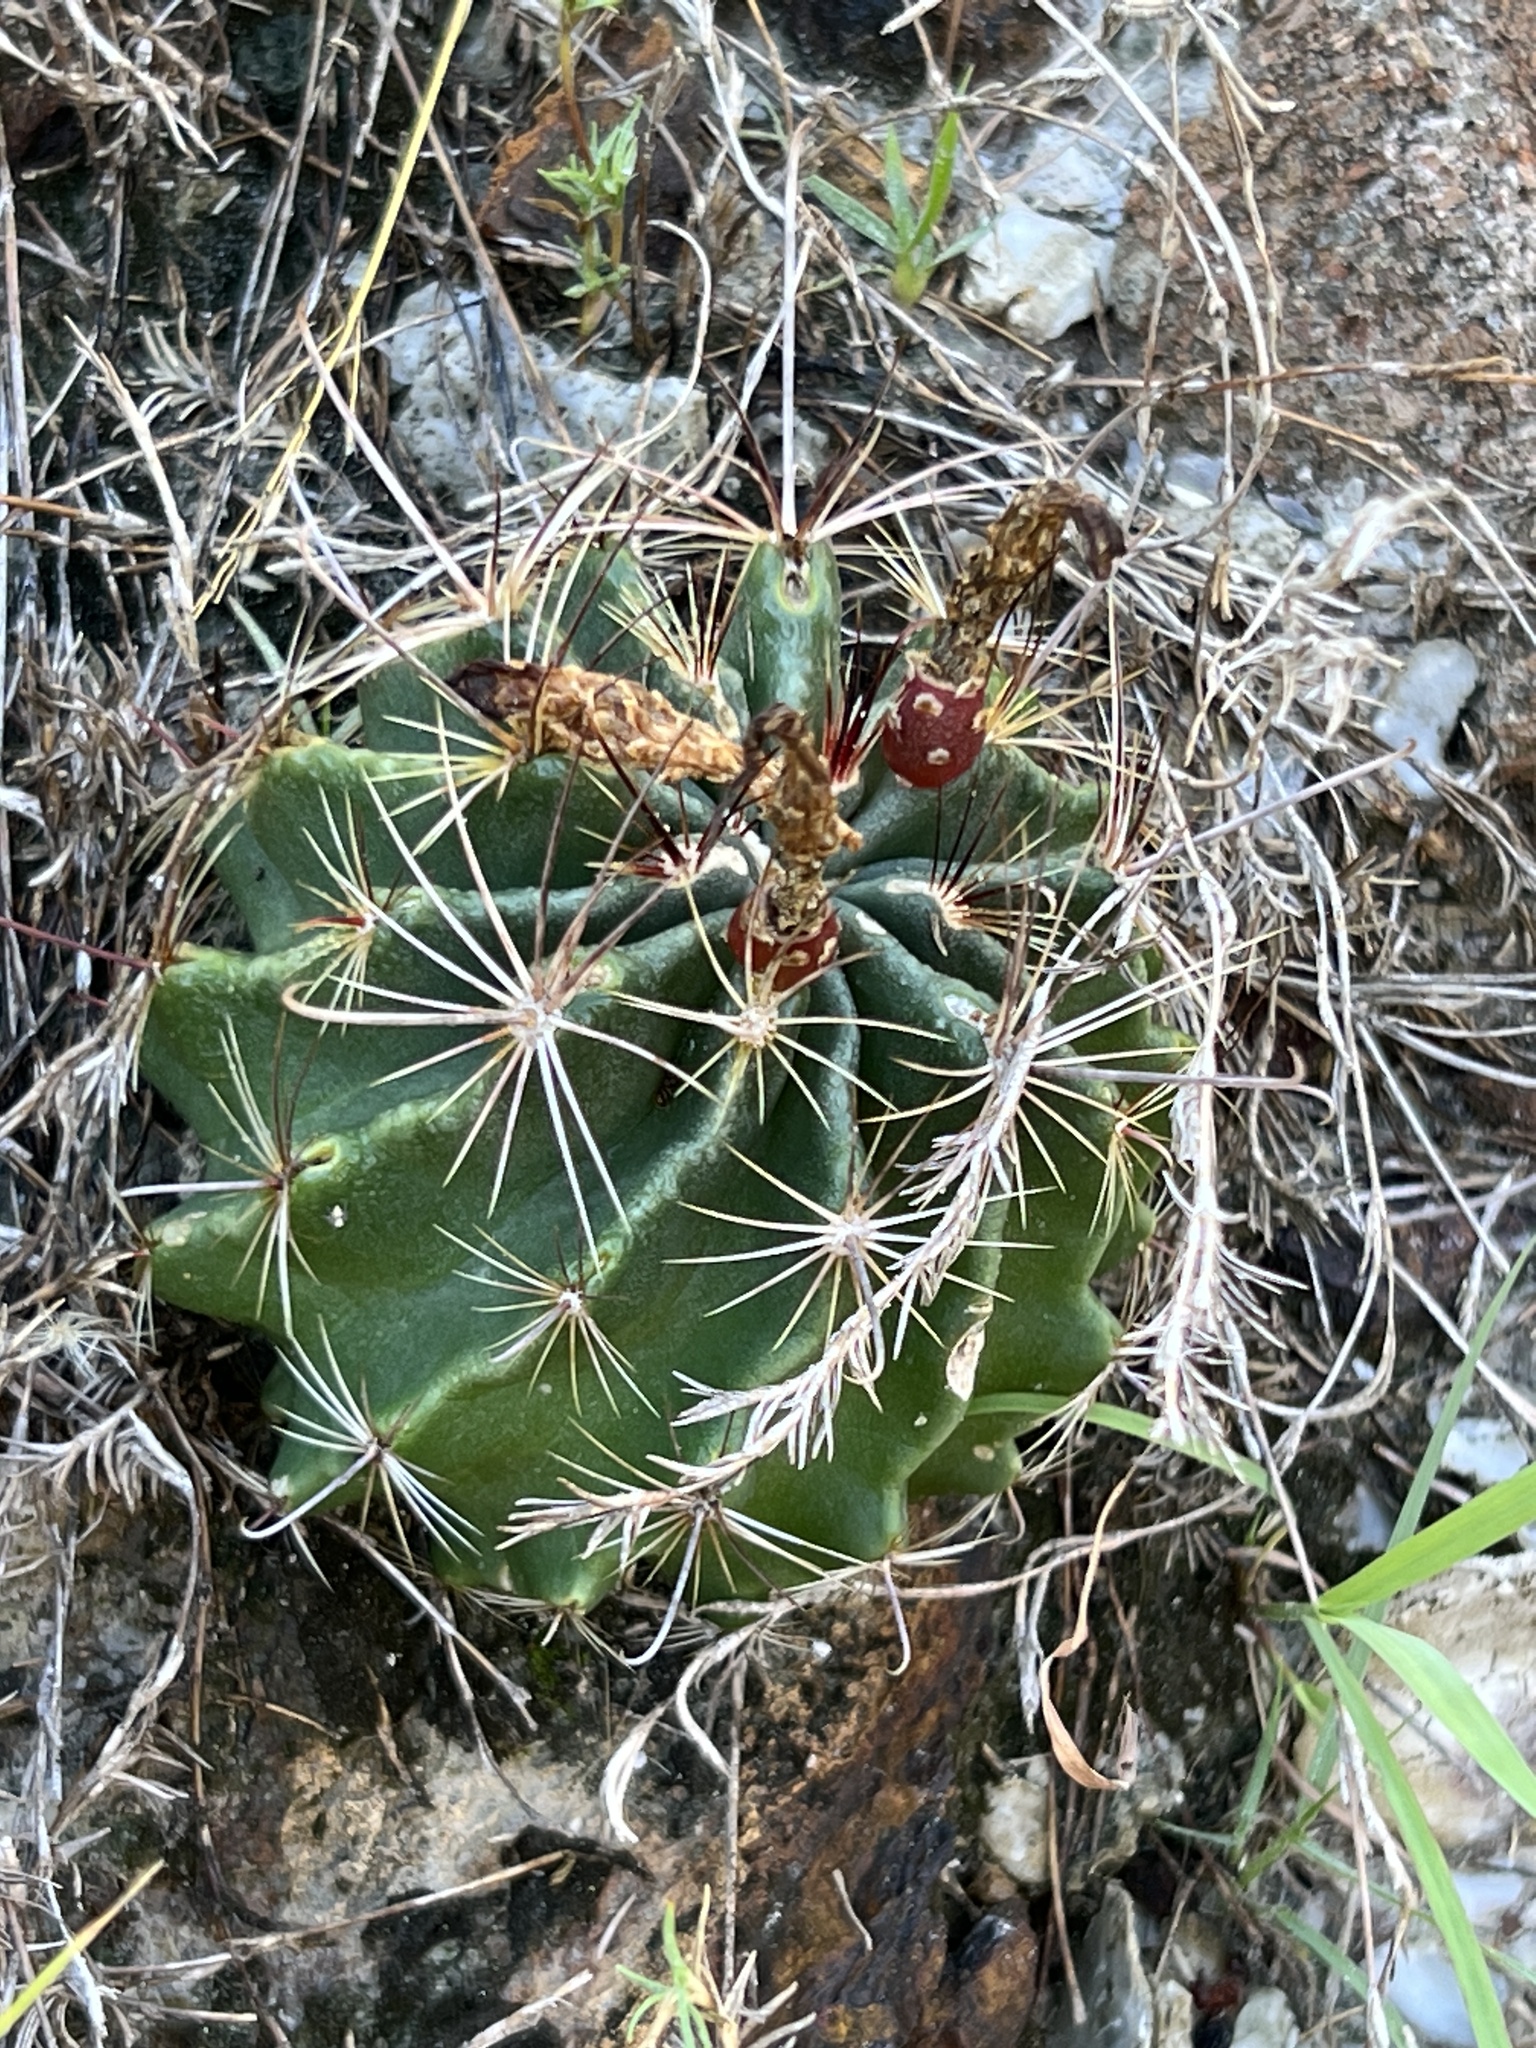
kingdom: Plantae
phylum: Tracheophyta
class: Magnoliopsida
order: Caryophyllales
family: Cactaceae
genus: Thelocactus
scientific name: Thelocactus setispinus
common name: Miniature barrel cactus
